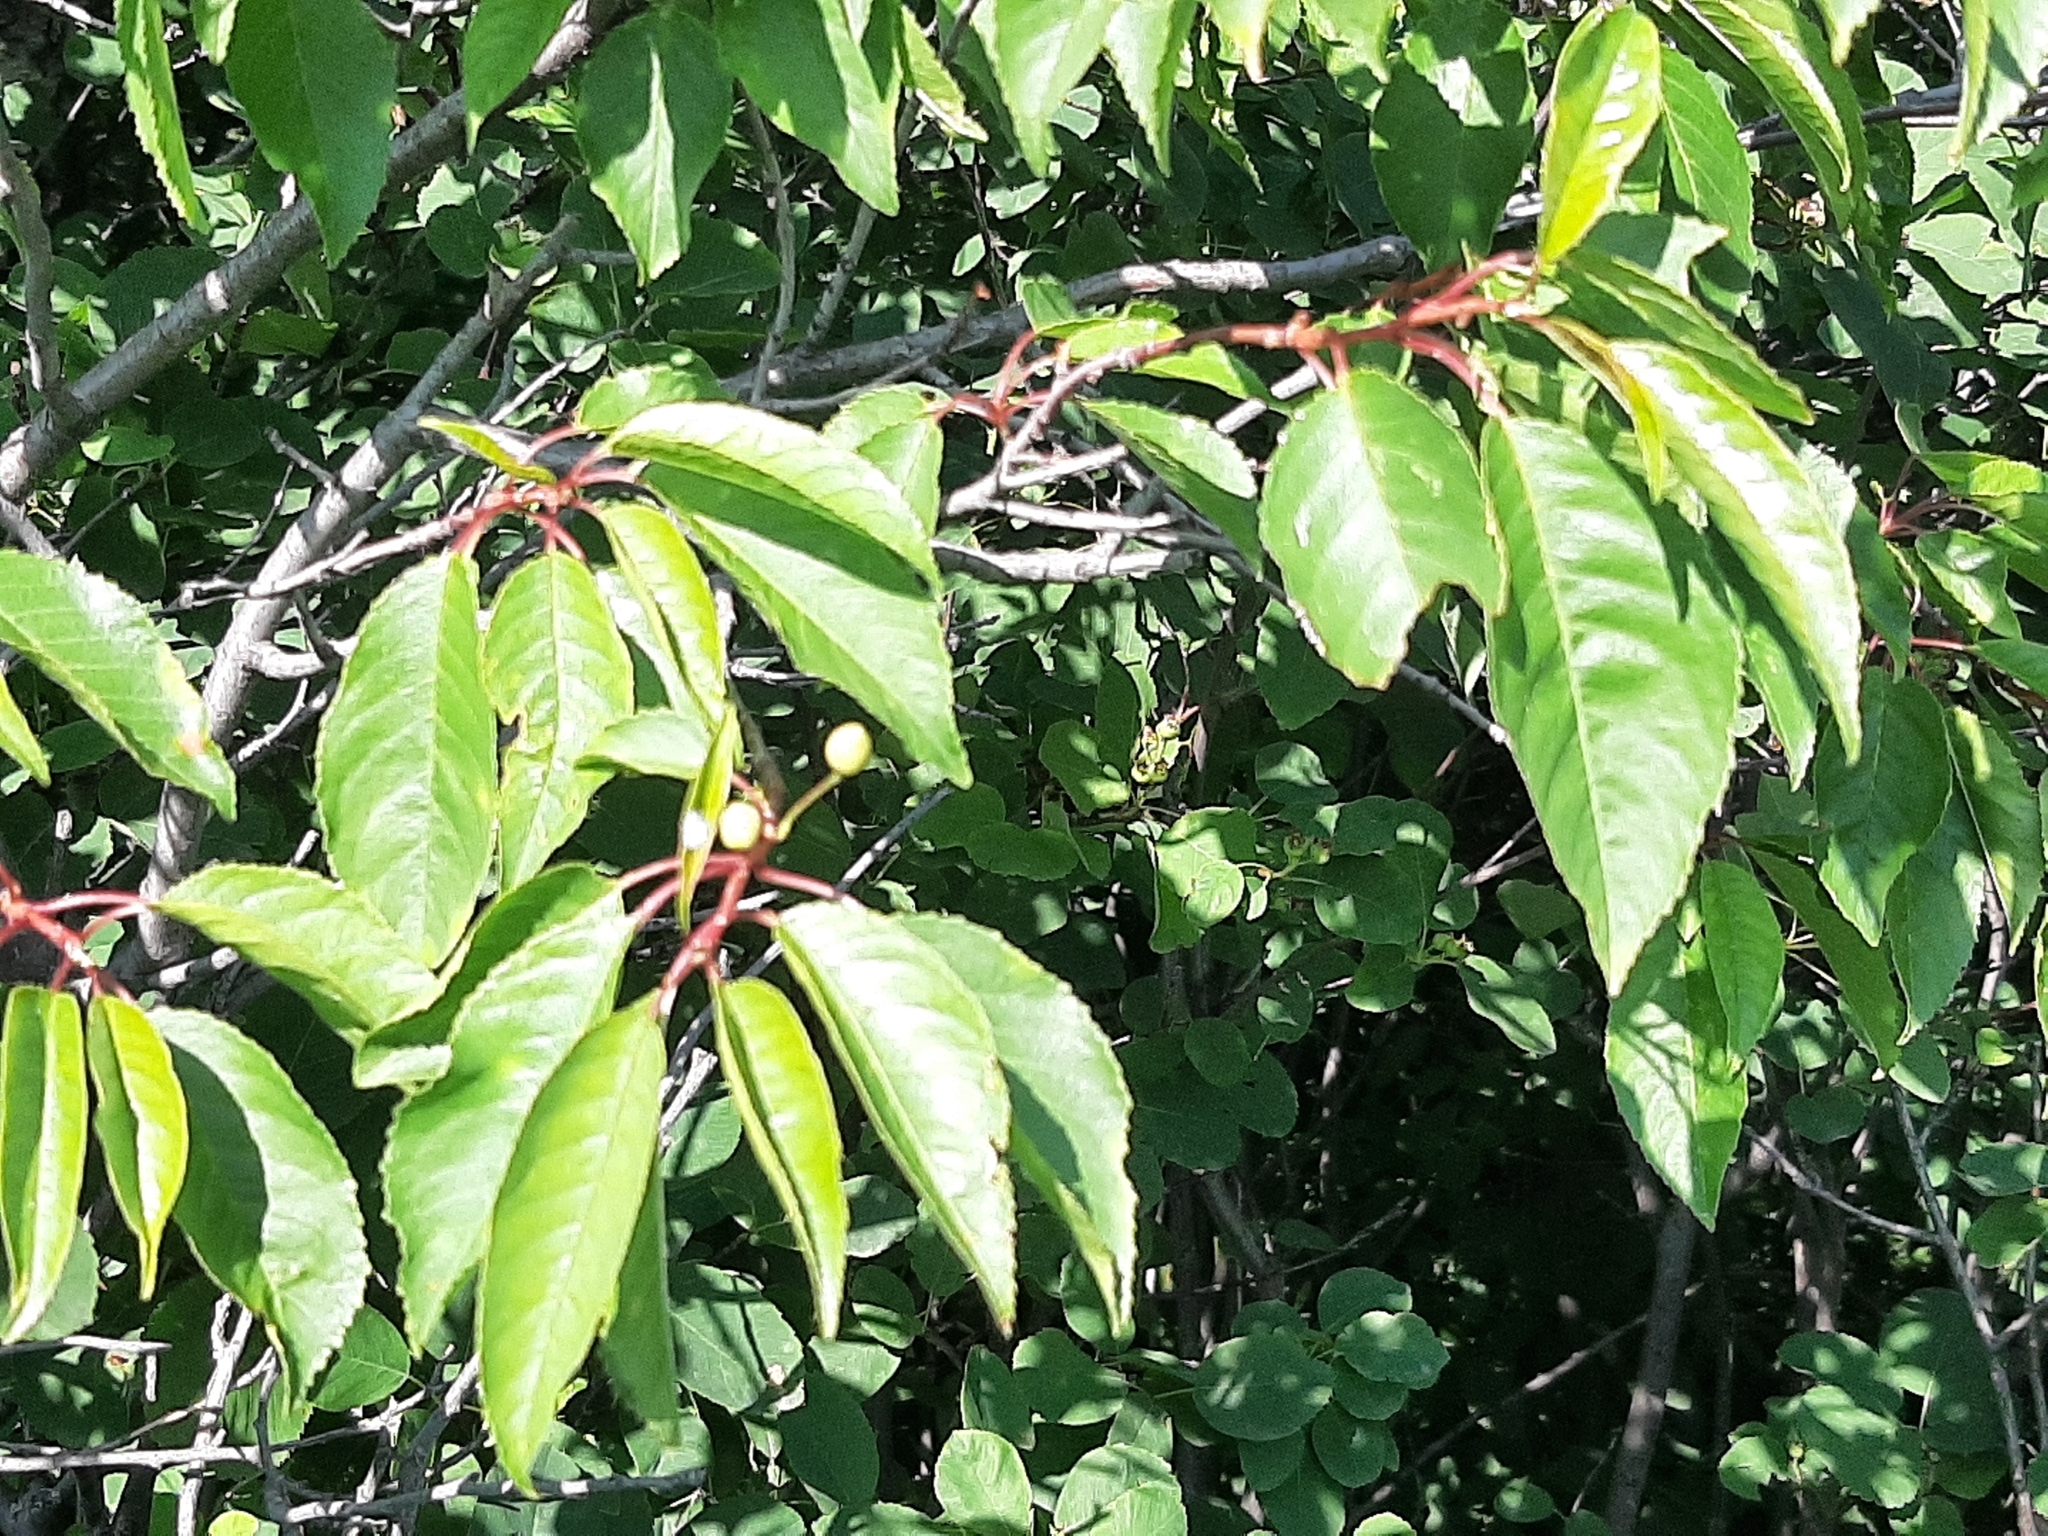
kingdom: Plantae
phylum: Tracheophyta
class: Magnoliopsida
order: Rosales
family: Rosaceae
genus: Prunus
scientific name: Prunus pensylvanica
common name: Pin cherry
